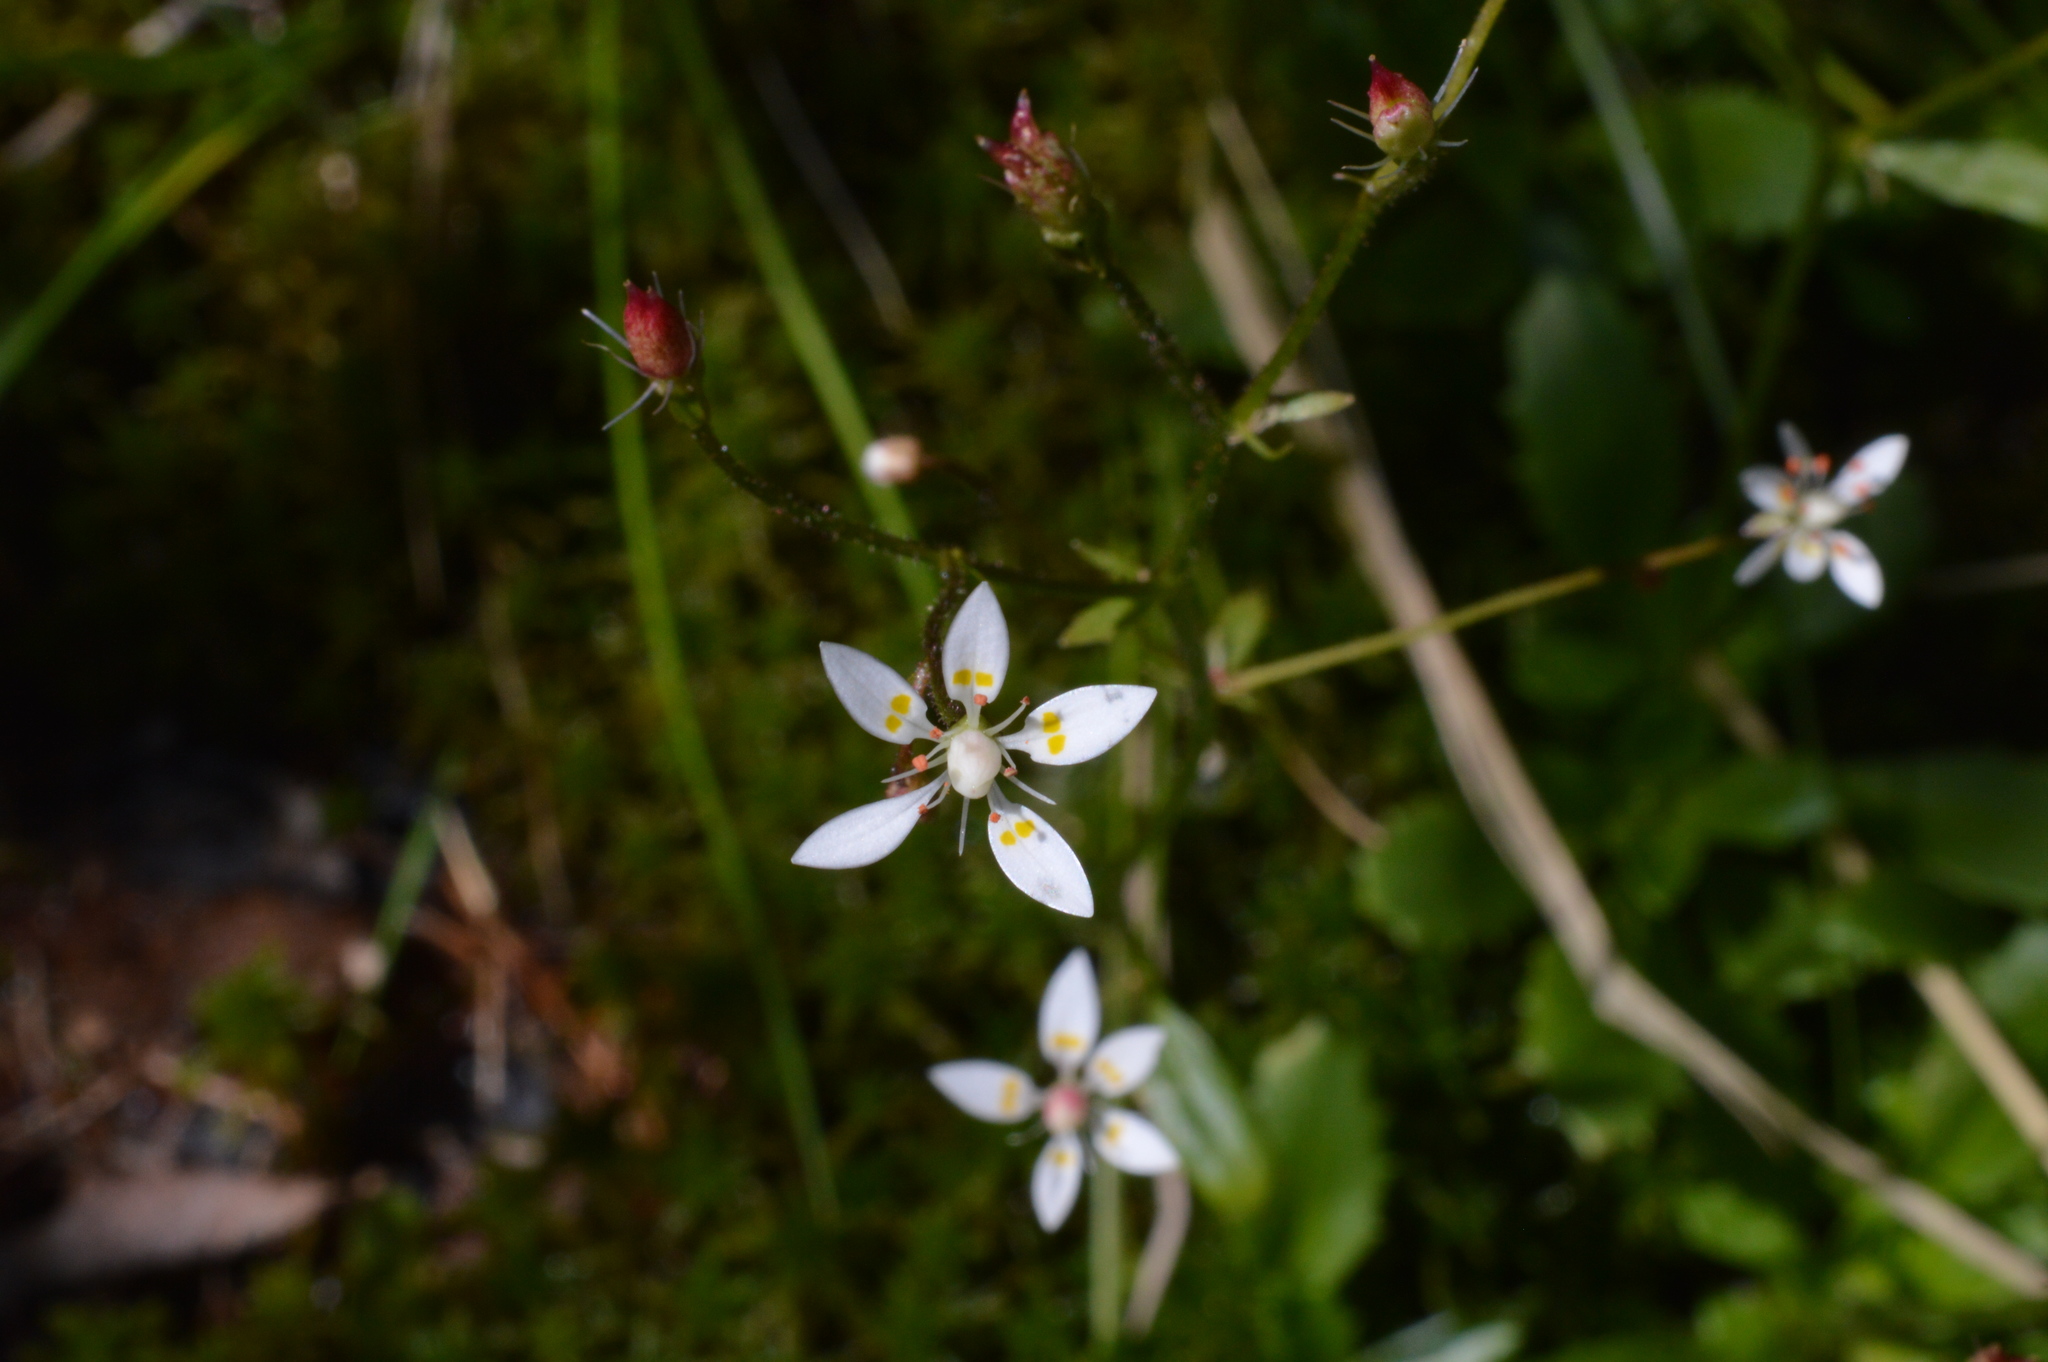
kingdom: Plantae
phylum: Tracheophyta
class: Magnoliopsida
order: Saxifragales
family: Saxifragaceae
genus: Micranthes
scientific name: Micranthes stellaris
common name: Starry saxifrage
